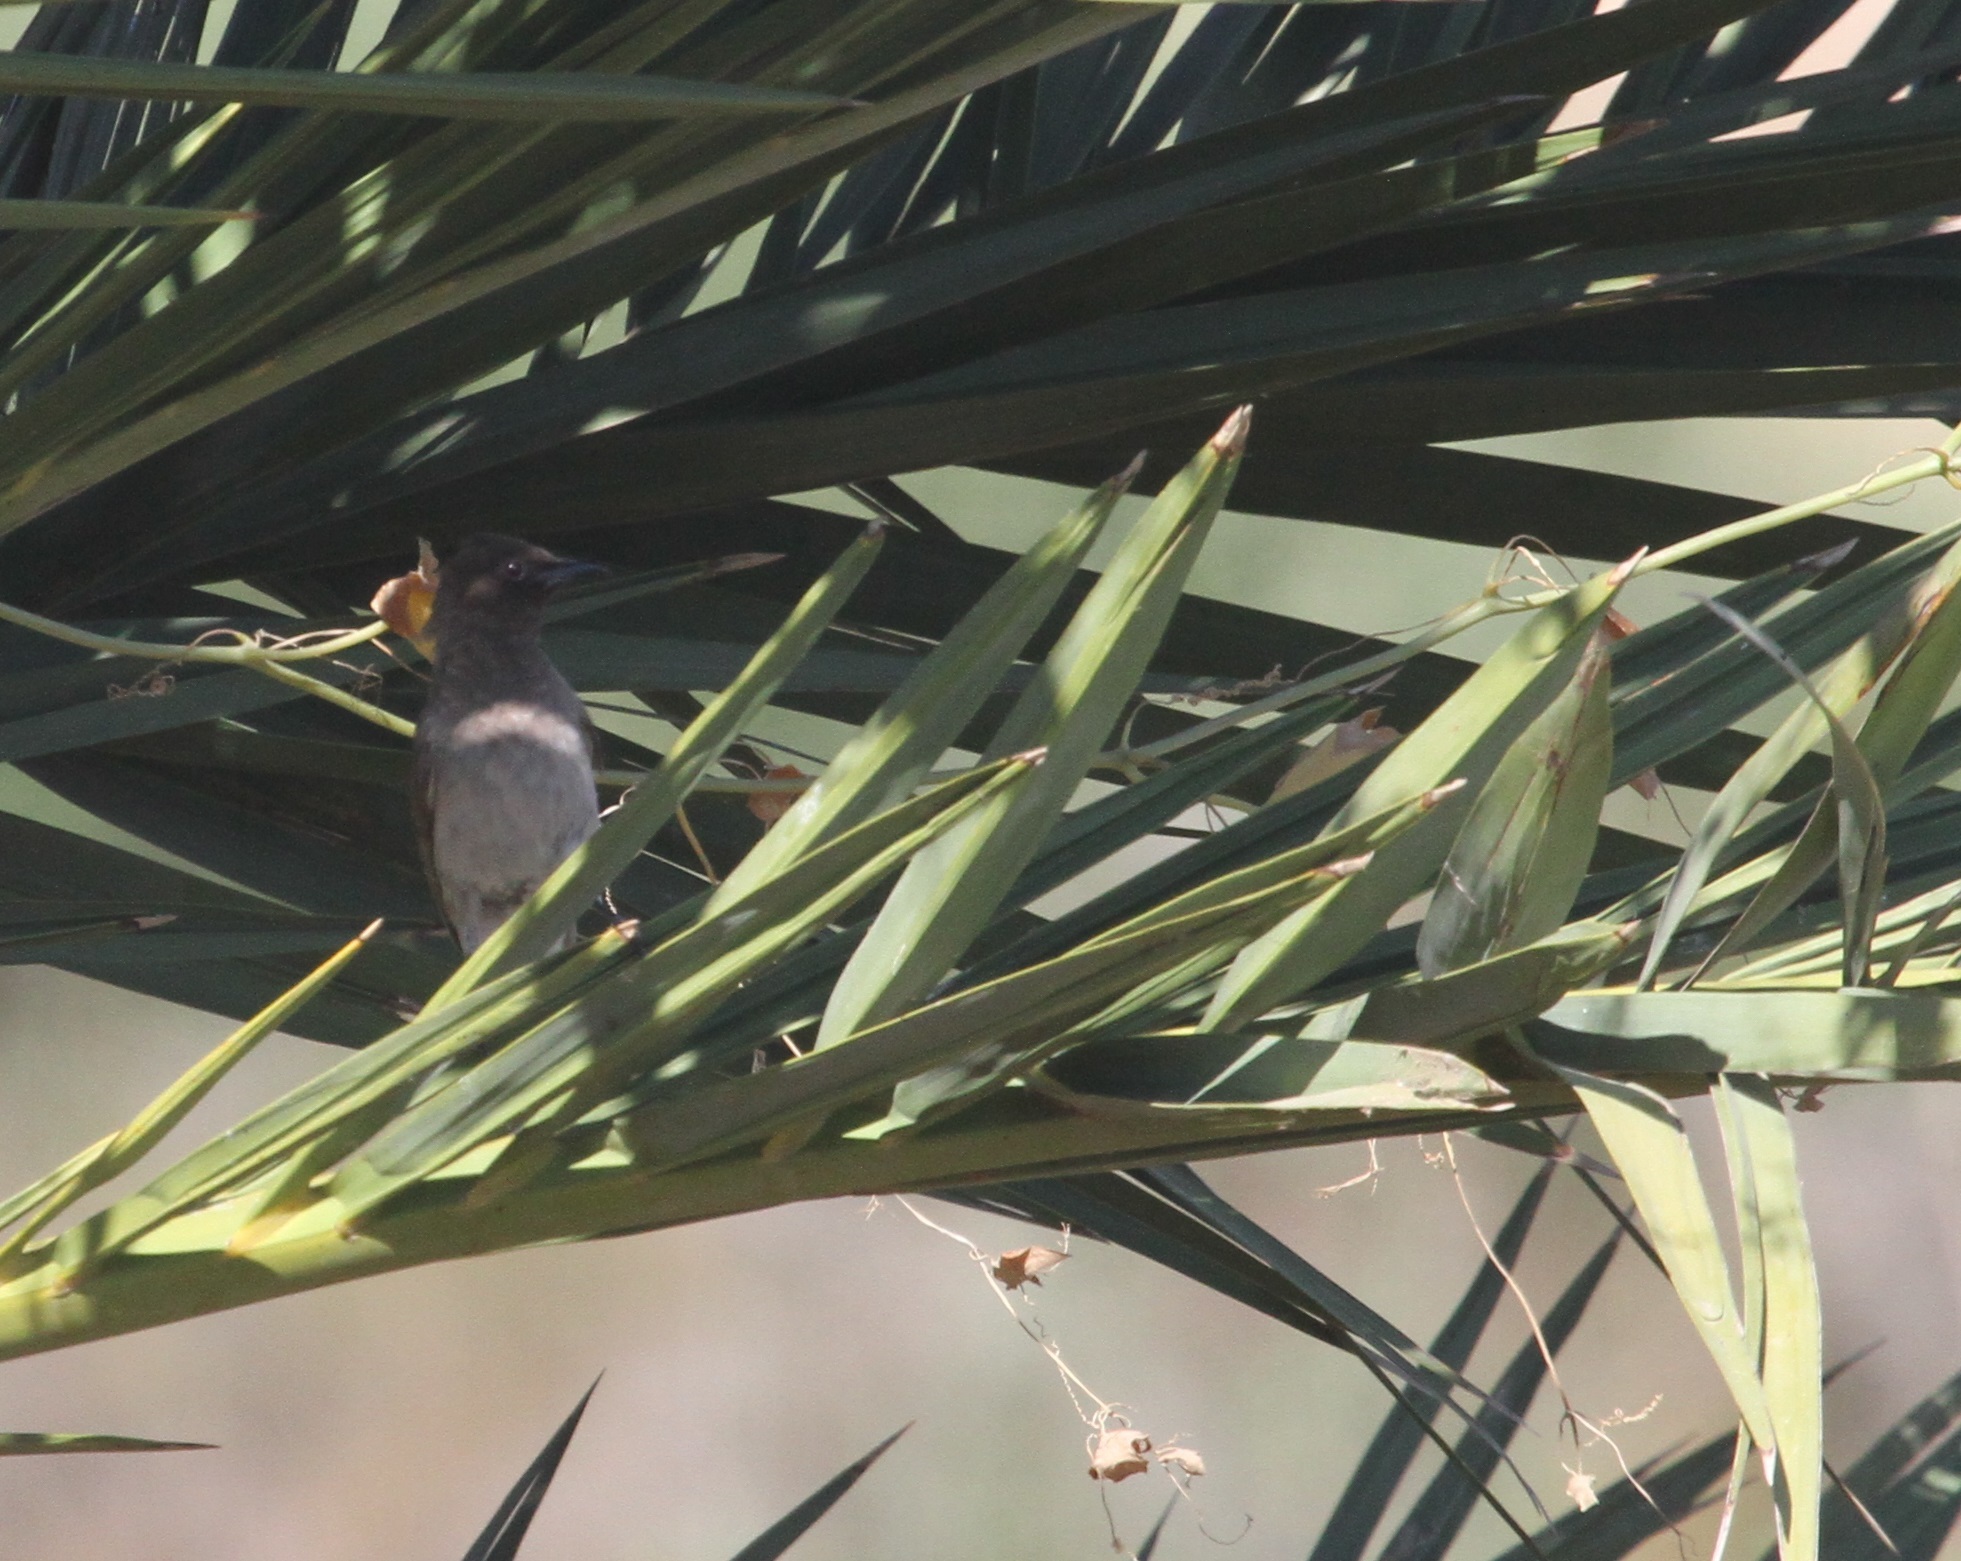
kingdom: Animalia
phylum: Chordata
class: Aves
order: Passeriformes
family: Pycnonotidae
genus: Pycnonotus
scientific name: Pycnonotus barbatus
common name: Common bulbul
